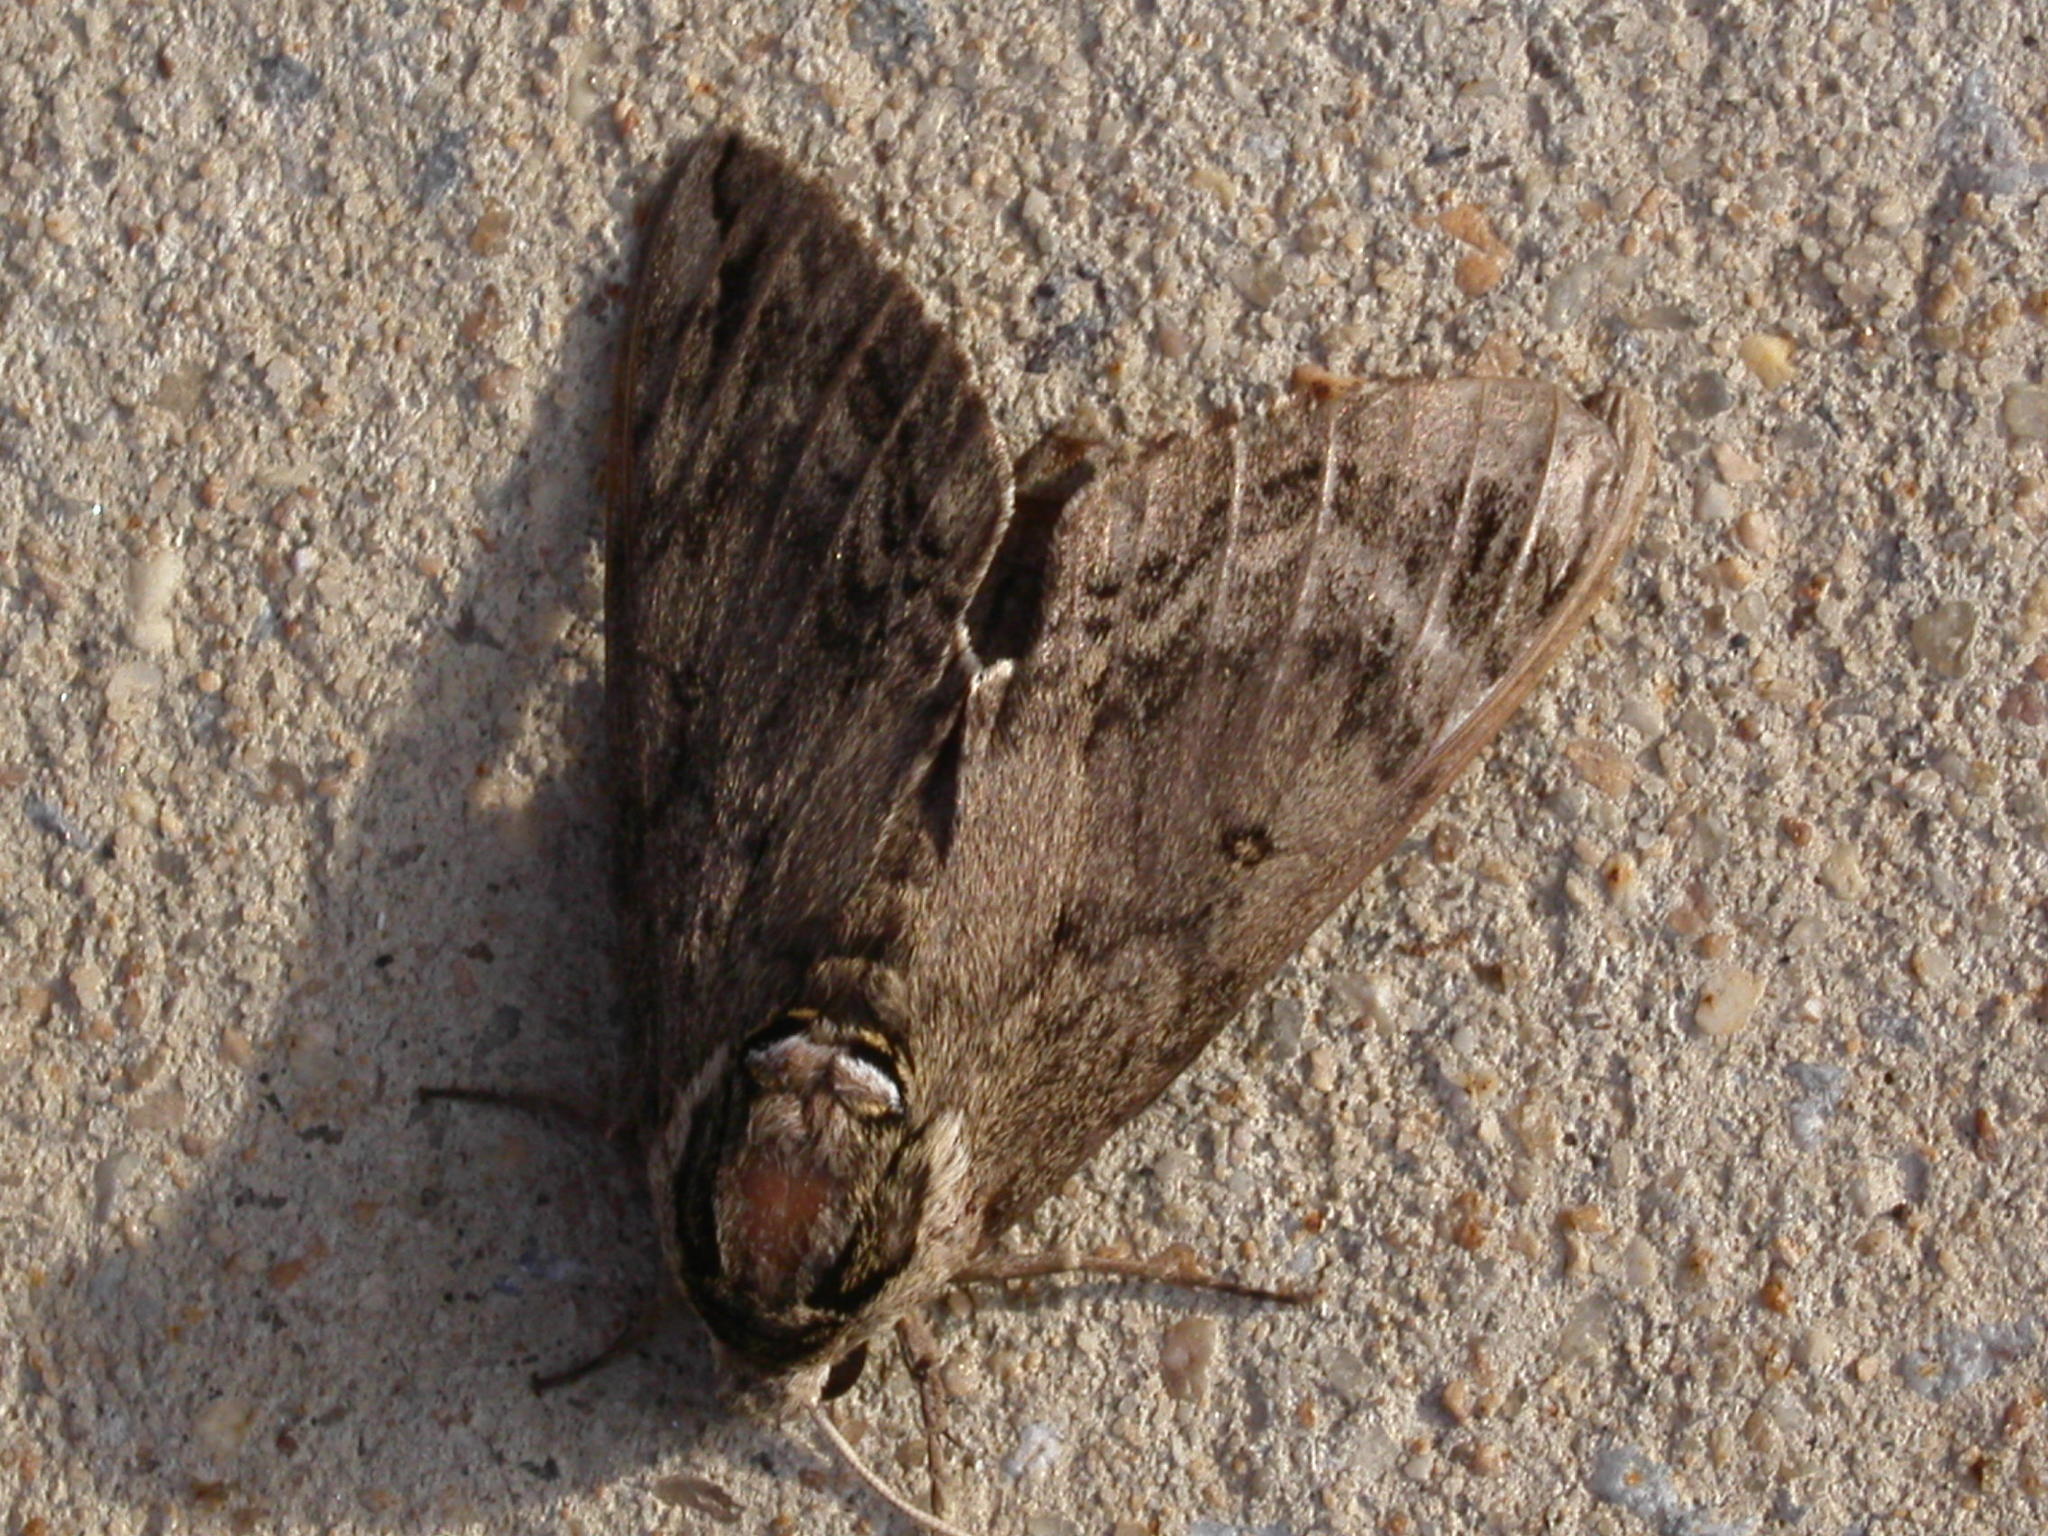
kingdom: Animalia
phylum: Arthropoda
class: Insecta
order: Lepidoptera
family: Sphingidae
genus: Ceratomia
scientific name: Ceratomia catalpae
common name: Catalpa hornworm
